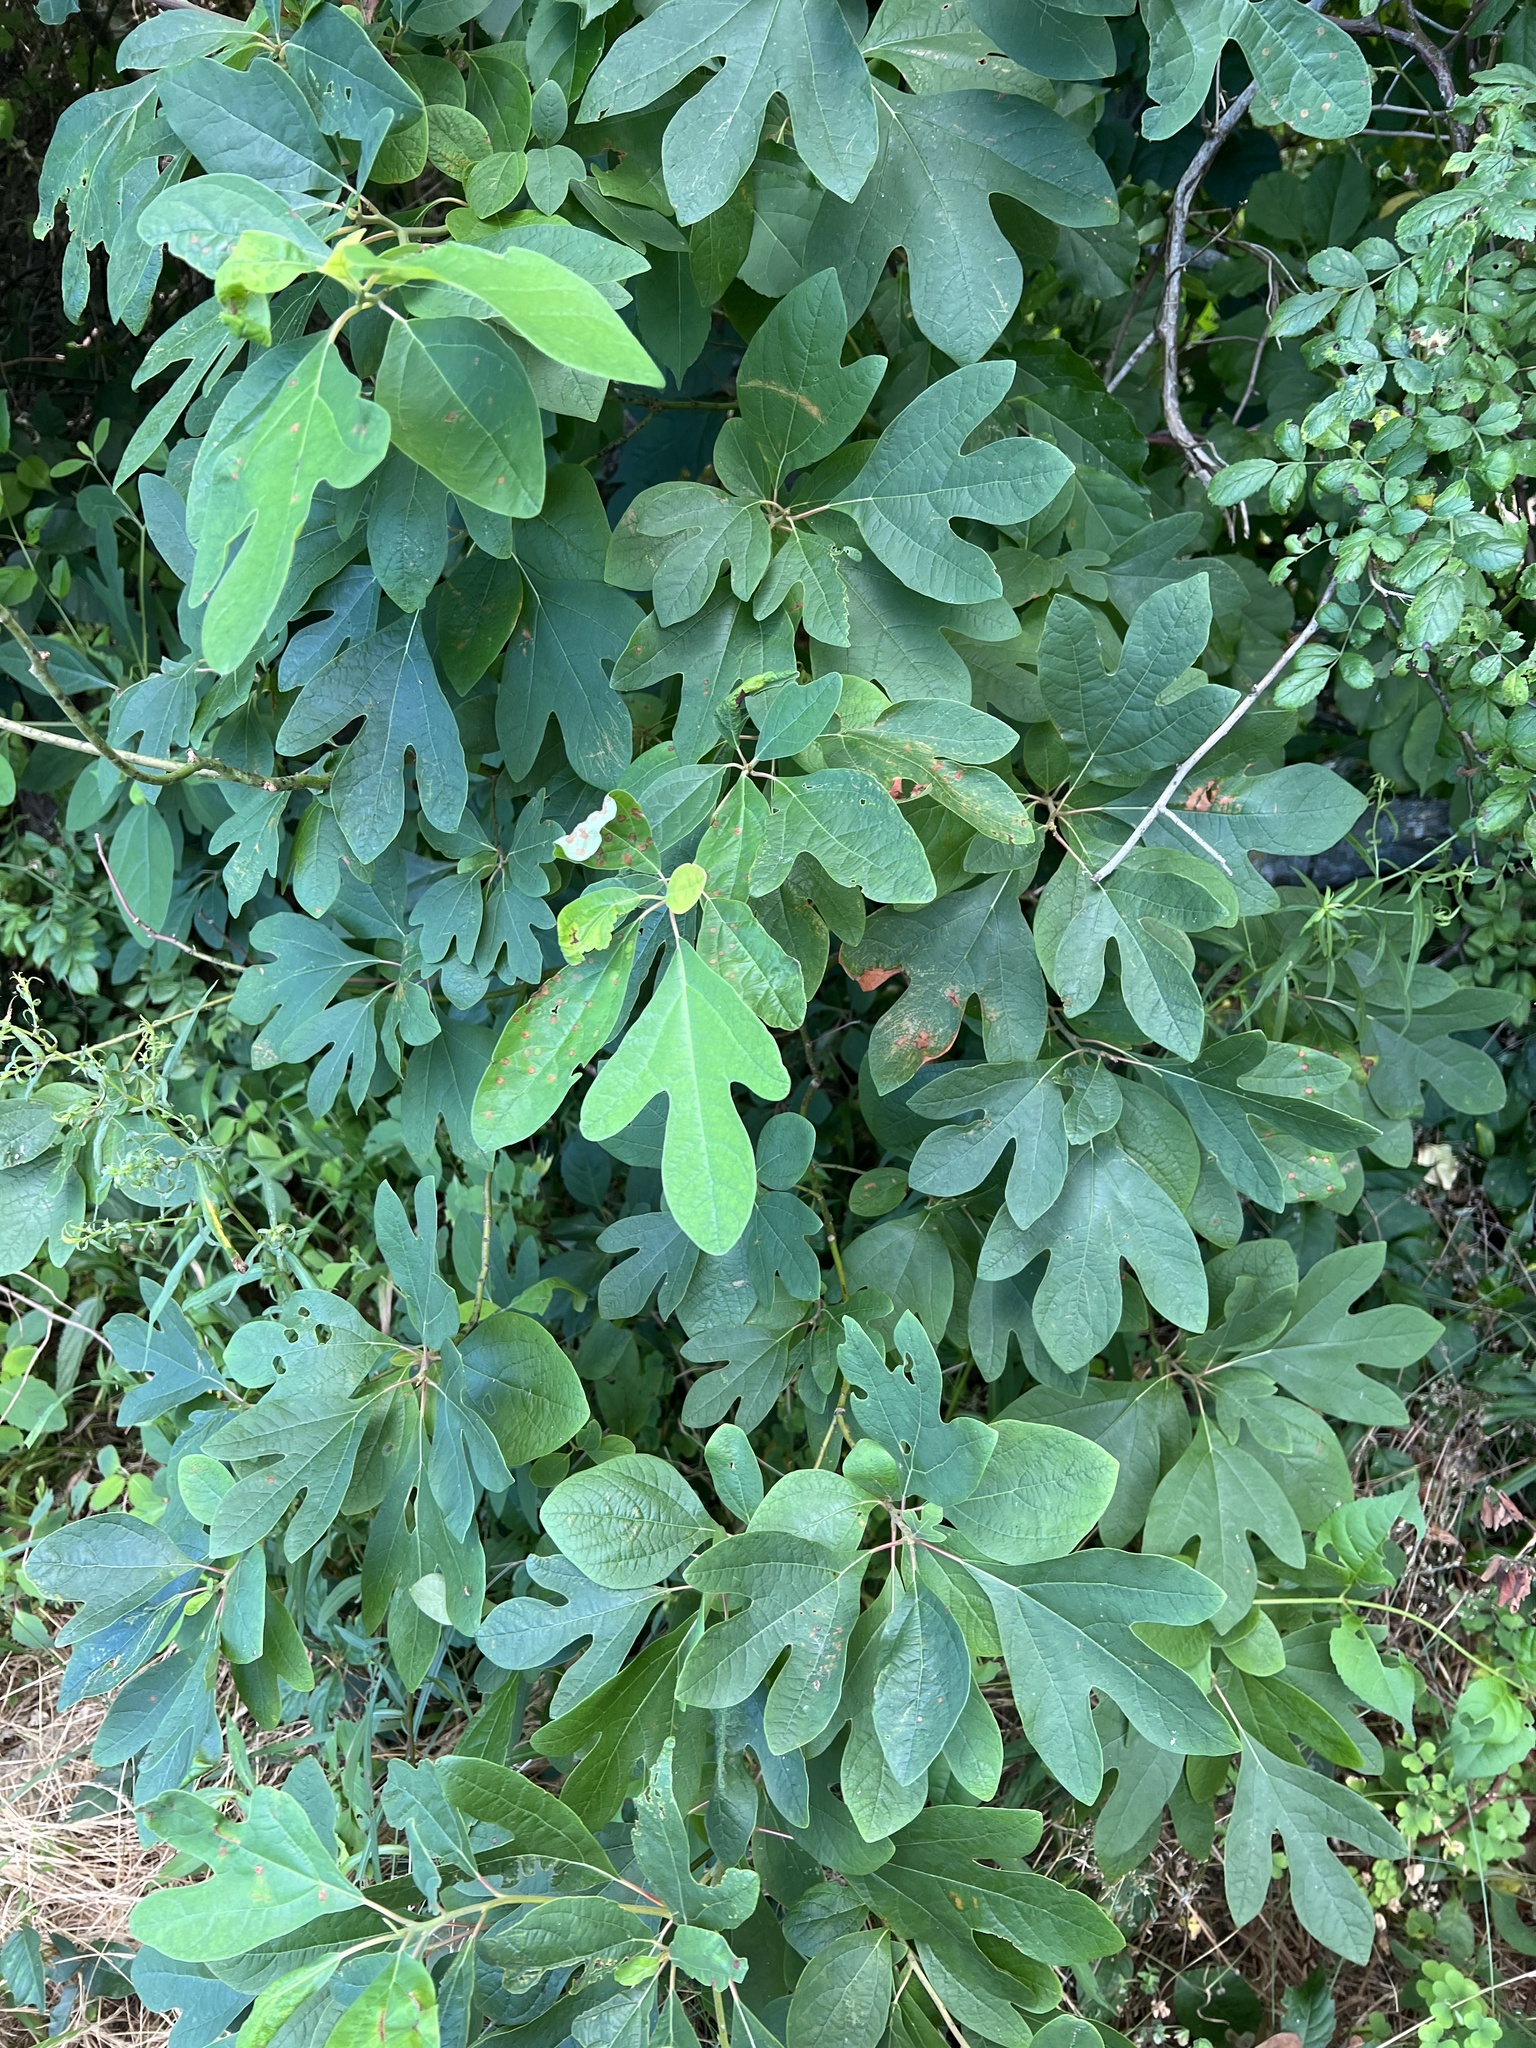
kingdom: Plantae
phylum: Tracheophyta
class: Magnoliopsida
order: Laurales
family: Lauraceae
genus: Sassafras
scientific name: Sassafras albidum
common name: Sassafras
